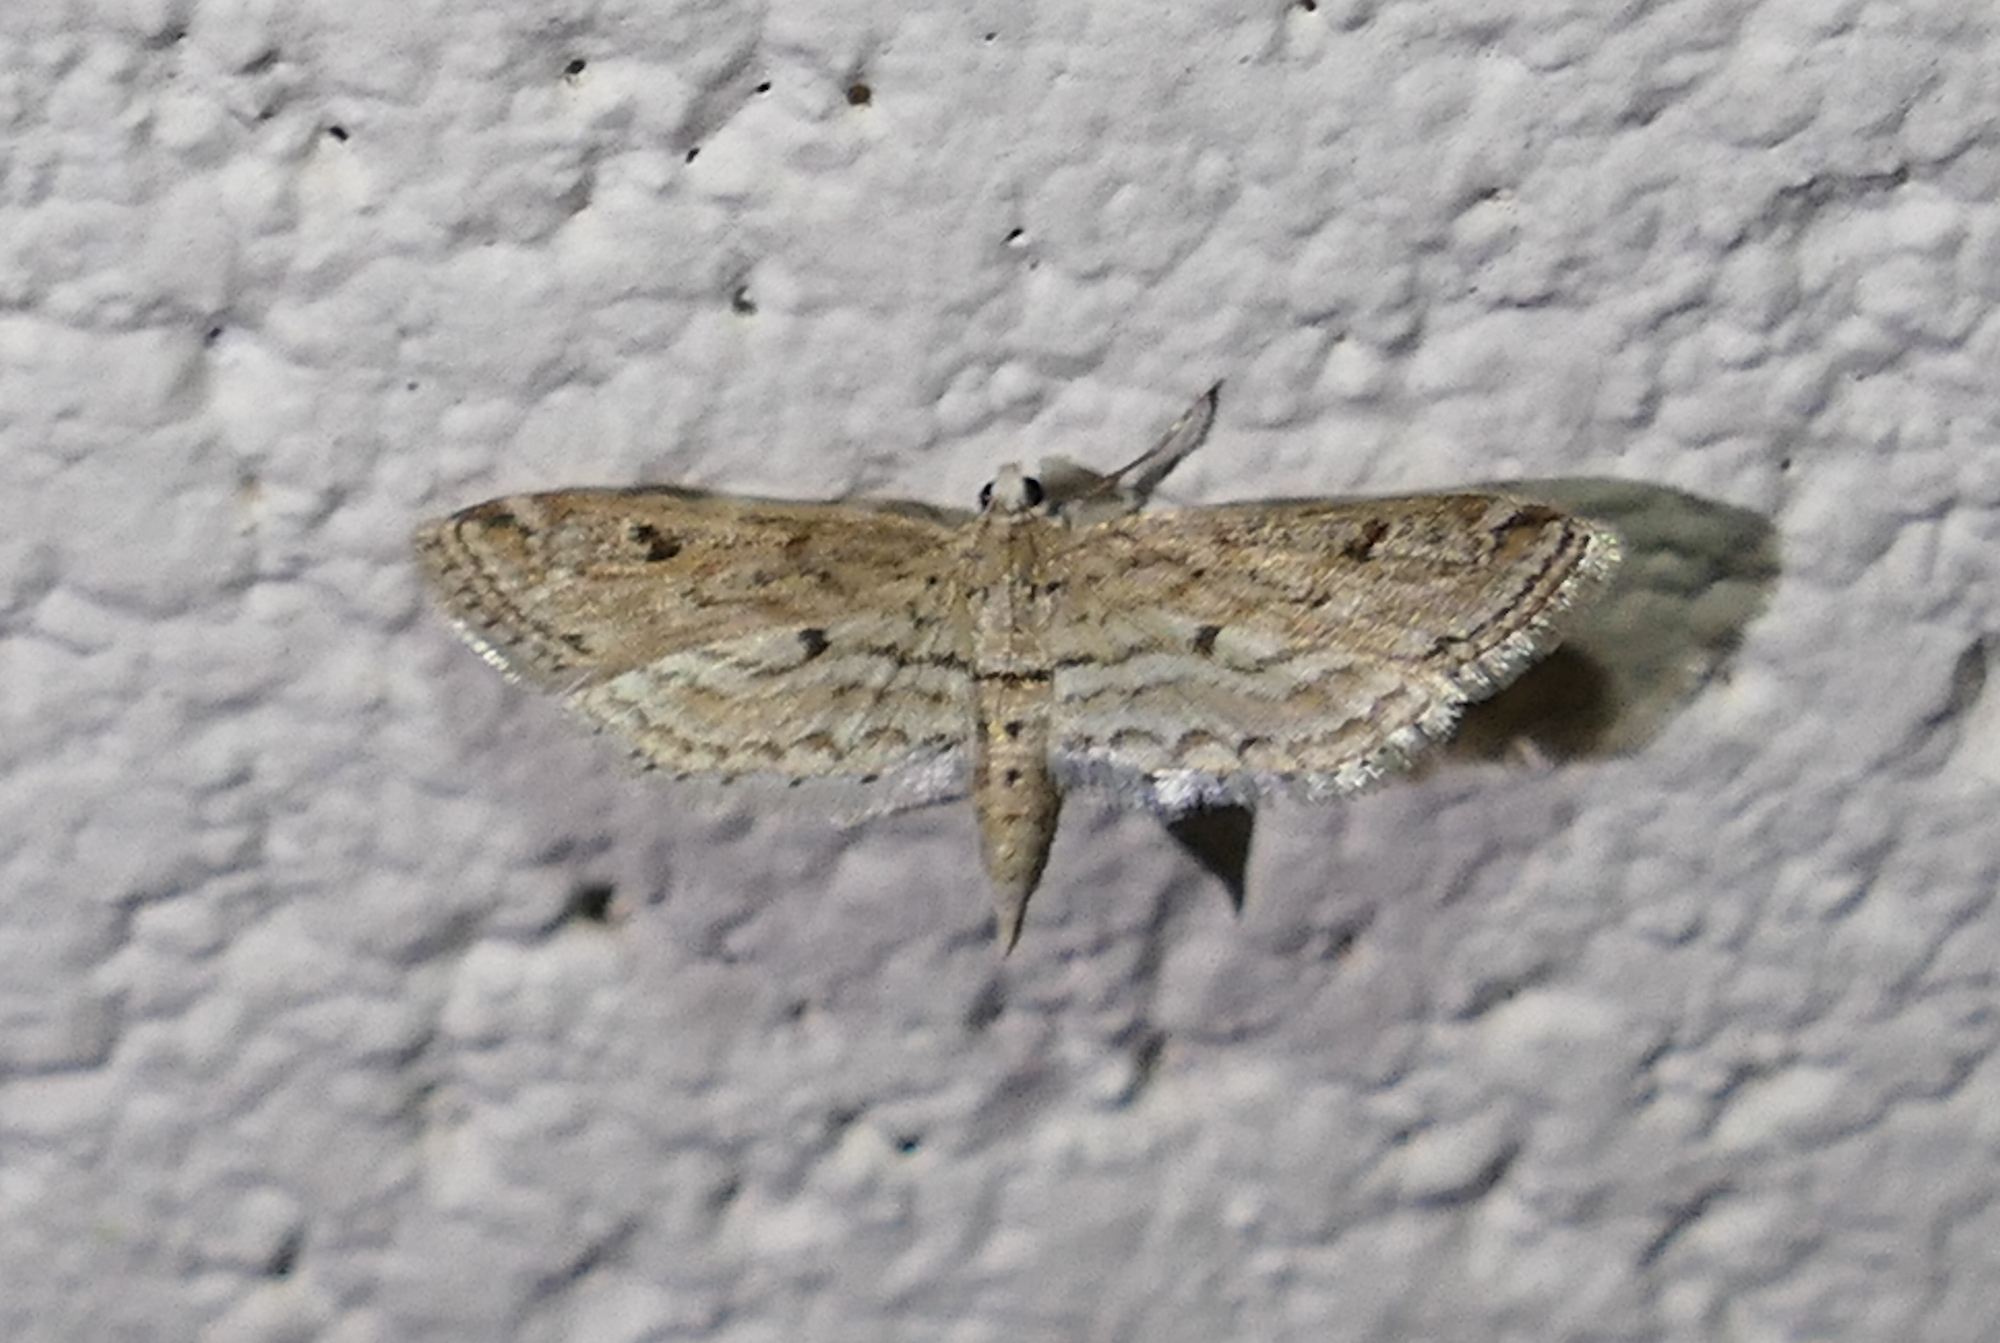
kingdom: Animalia
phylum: Arthropoda
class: Insecta
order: Lepidoptera
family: Crambidae
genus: Parapoynx
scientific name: Parapoynx allionealis
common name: Bladderwort casemaker
